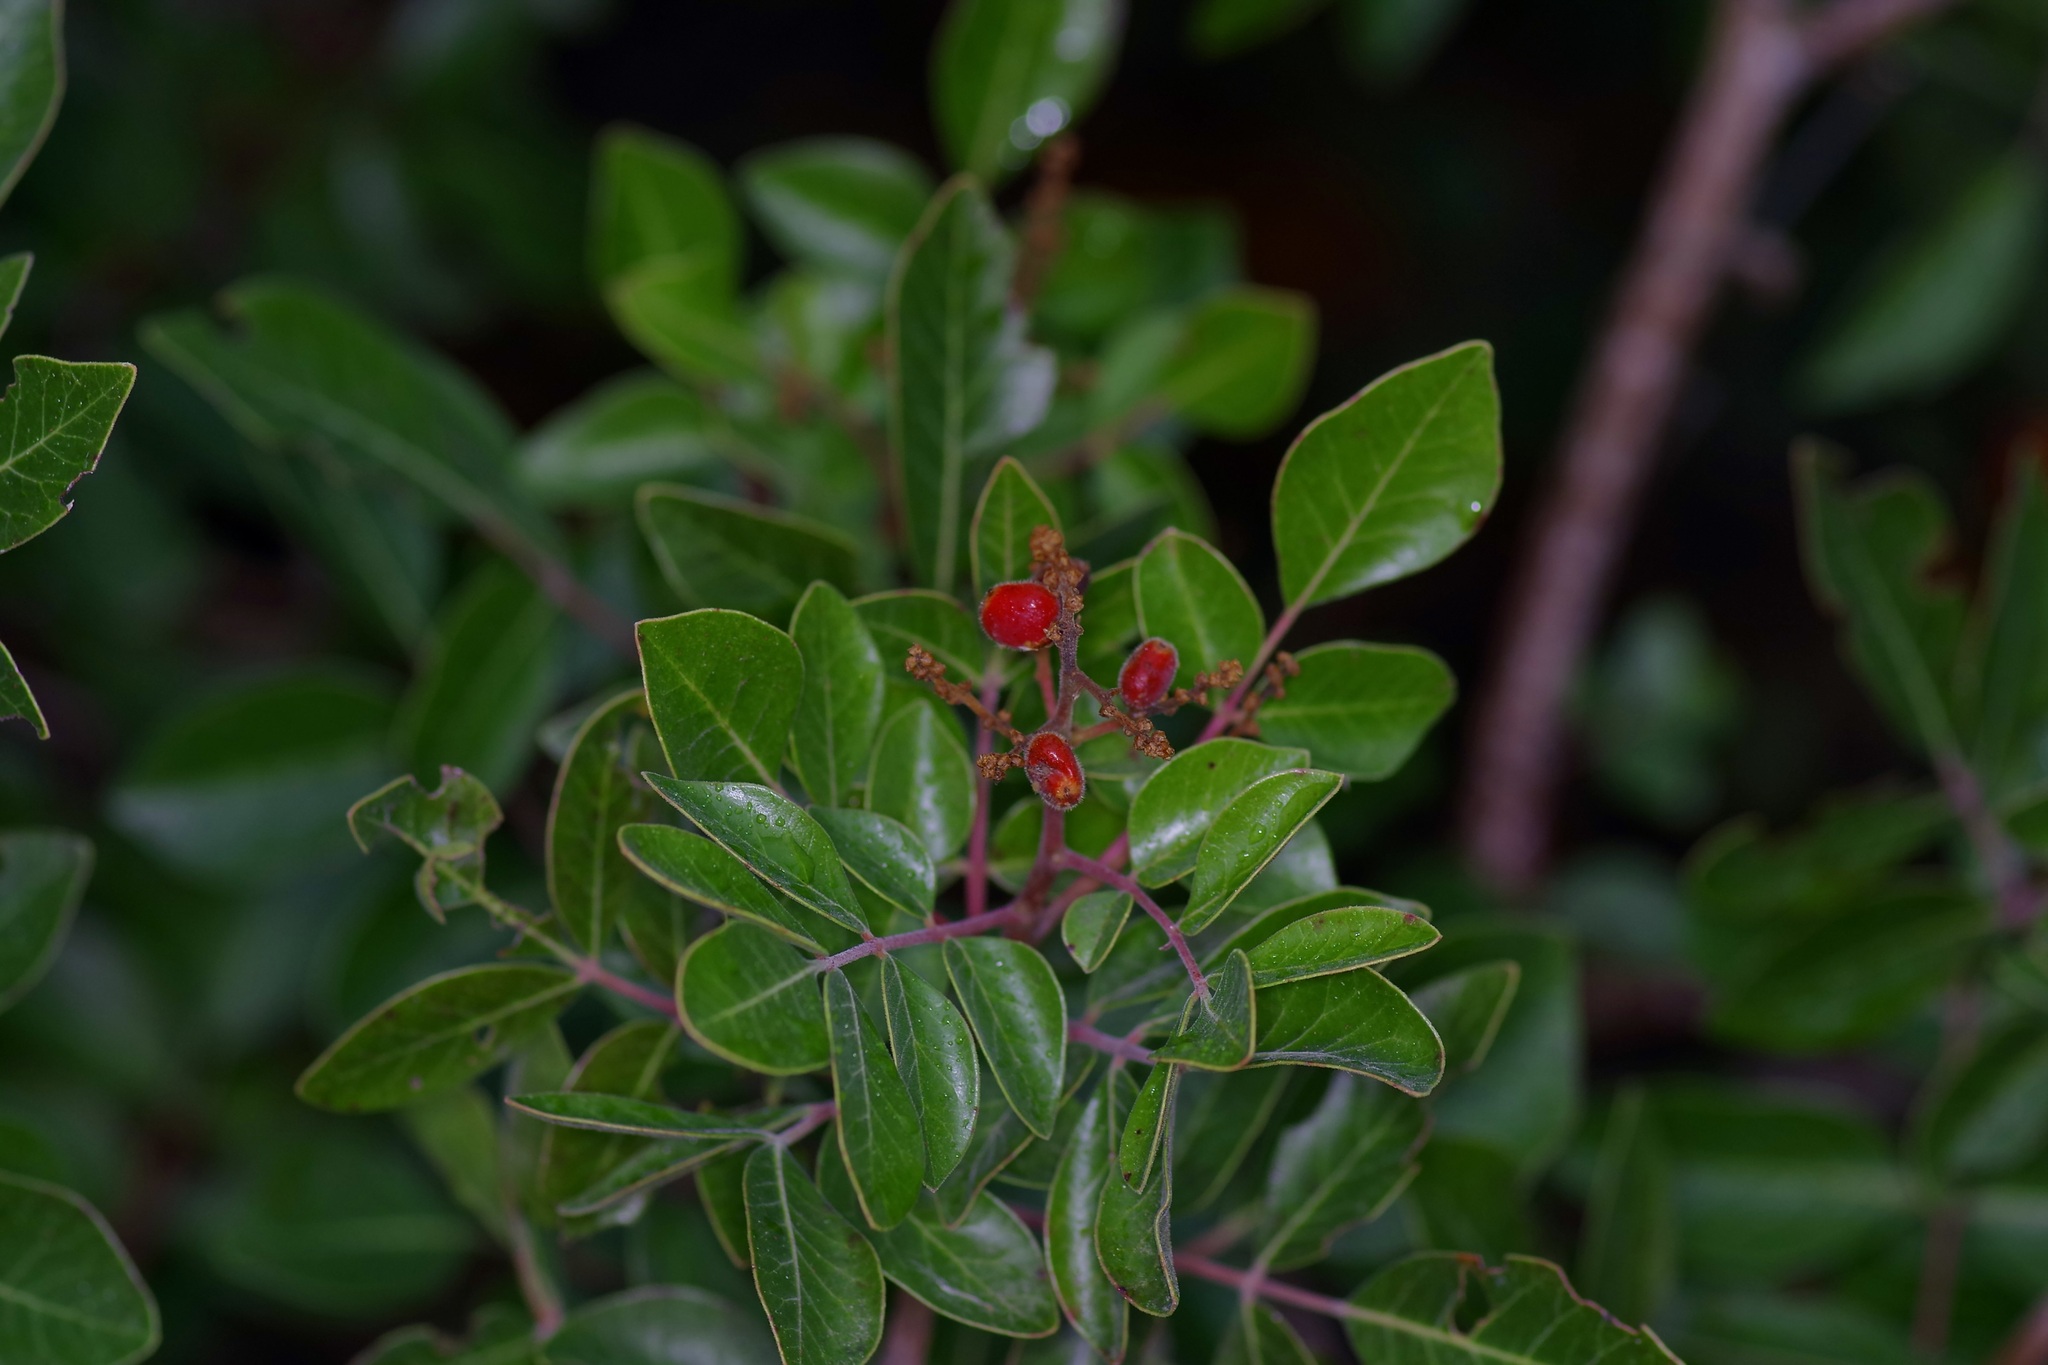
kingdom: Plantae
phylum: Tracheophyta
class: Magnoliopsida
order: Sapindales
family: Anacardiaceae
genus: Rhus
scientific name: Rhus virens
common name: Evergreen sumac
